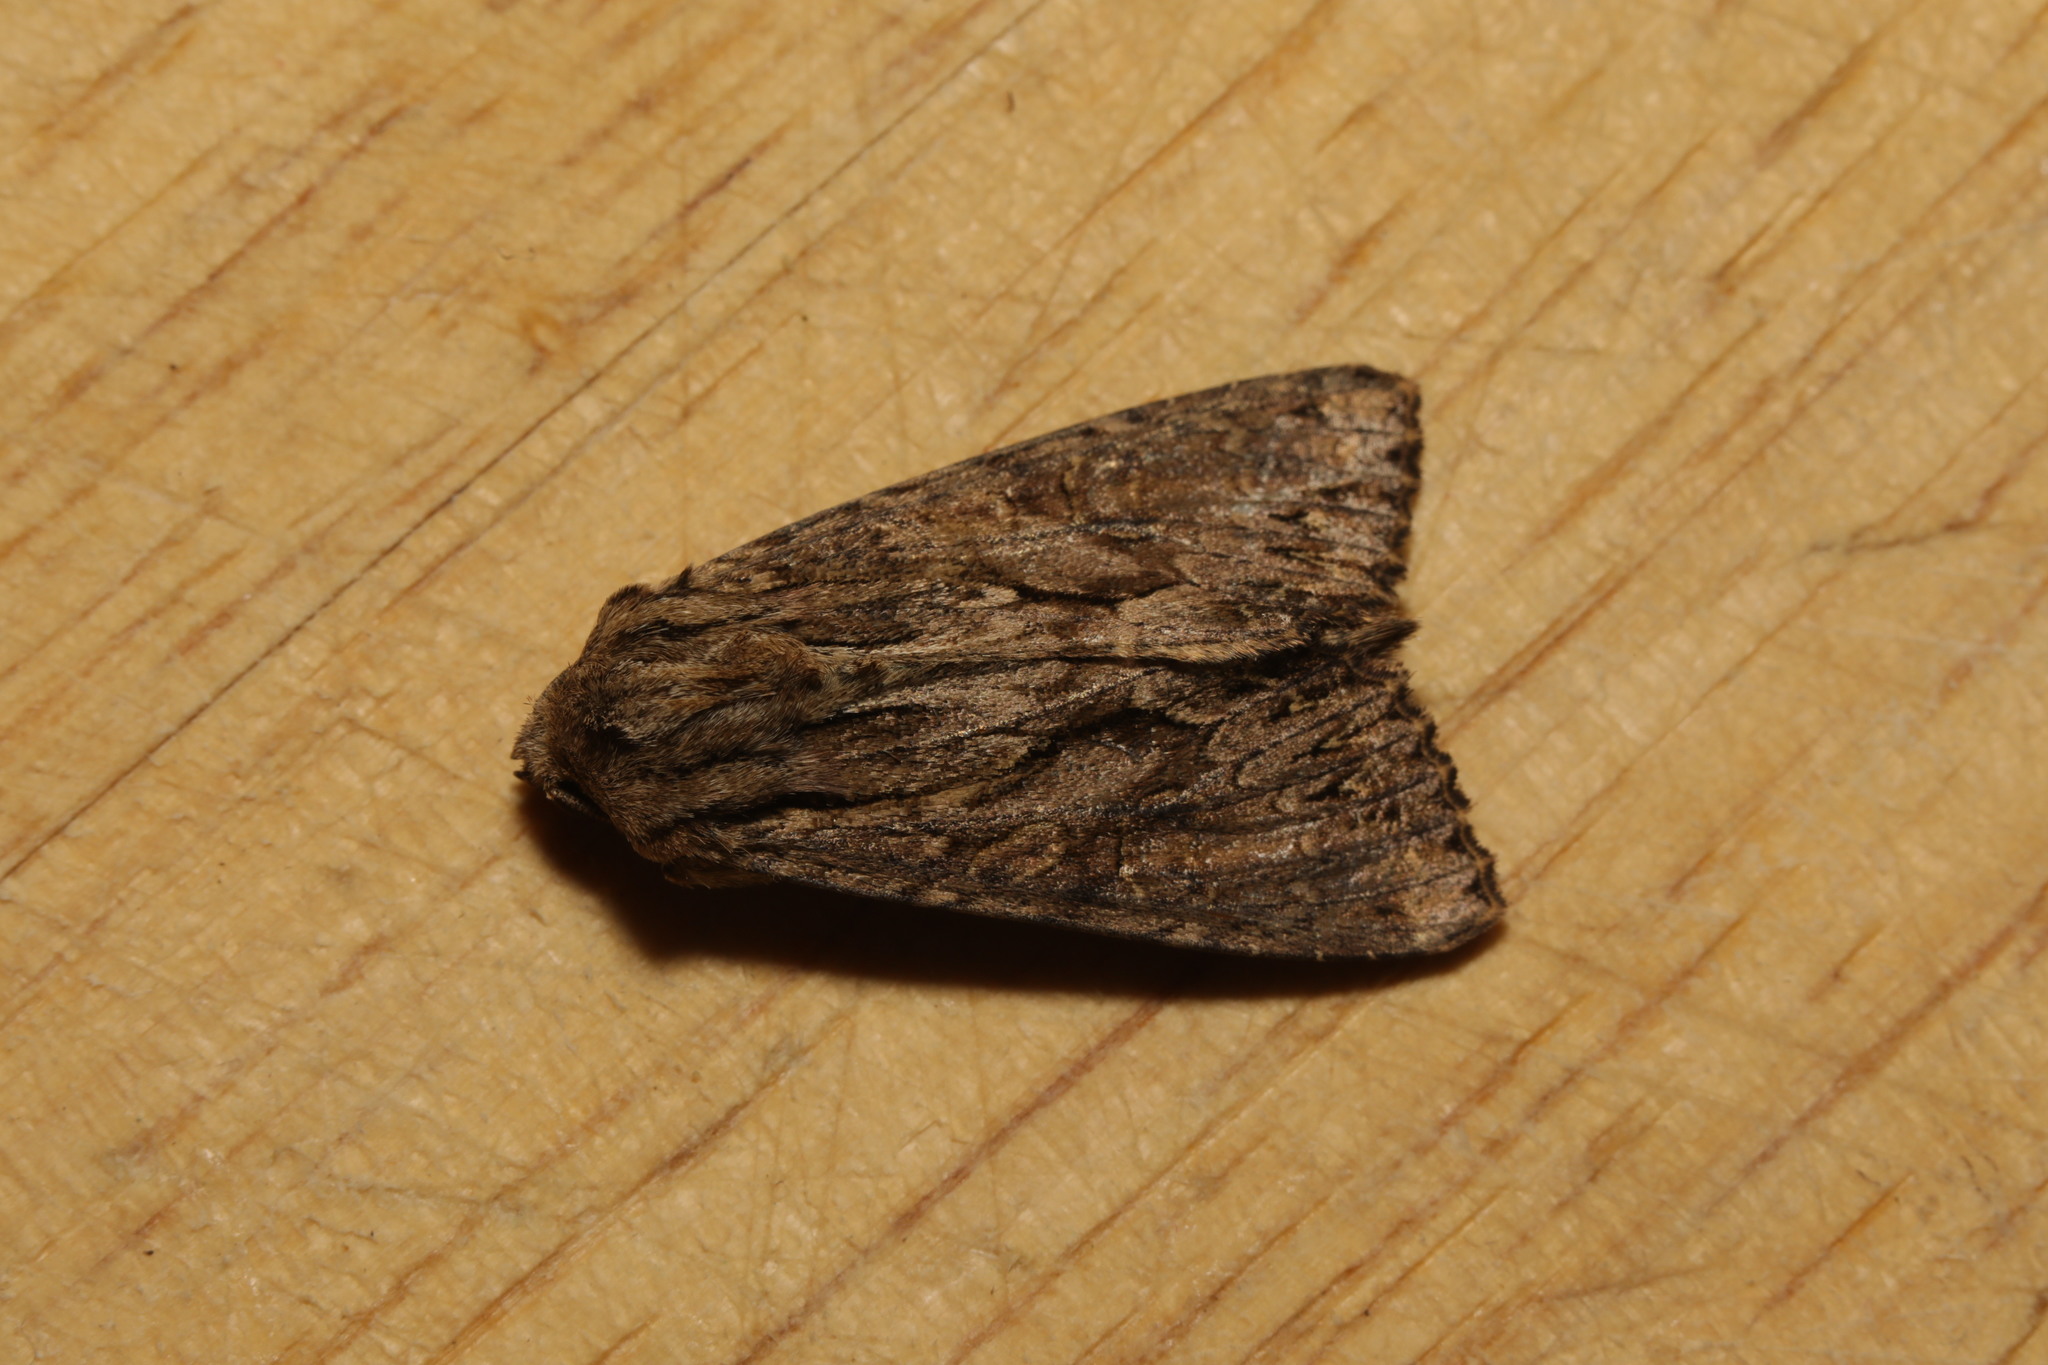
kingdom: Animalia
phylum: Arthropoda
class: Insecta
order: Lepidoptera
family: Noctuidae
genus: Apamea
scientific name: Apamea monoglypha
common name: Dark arches
